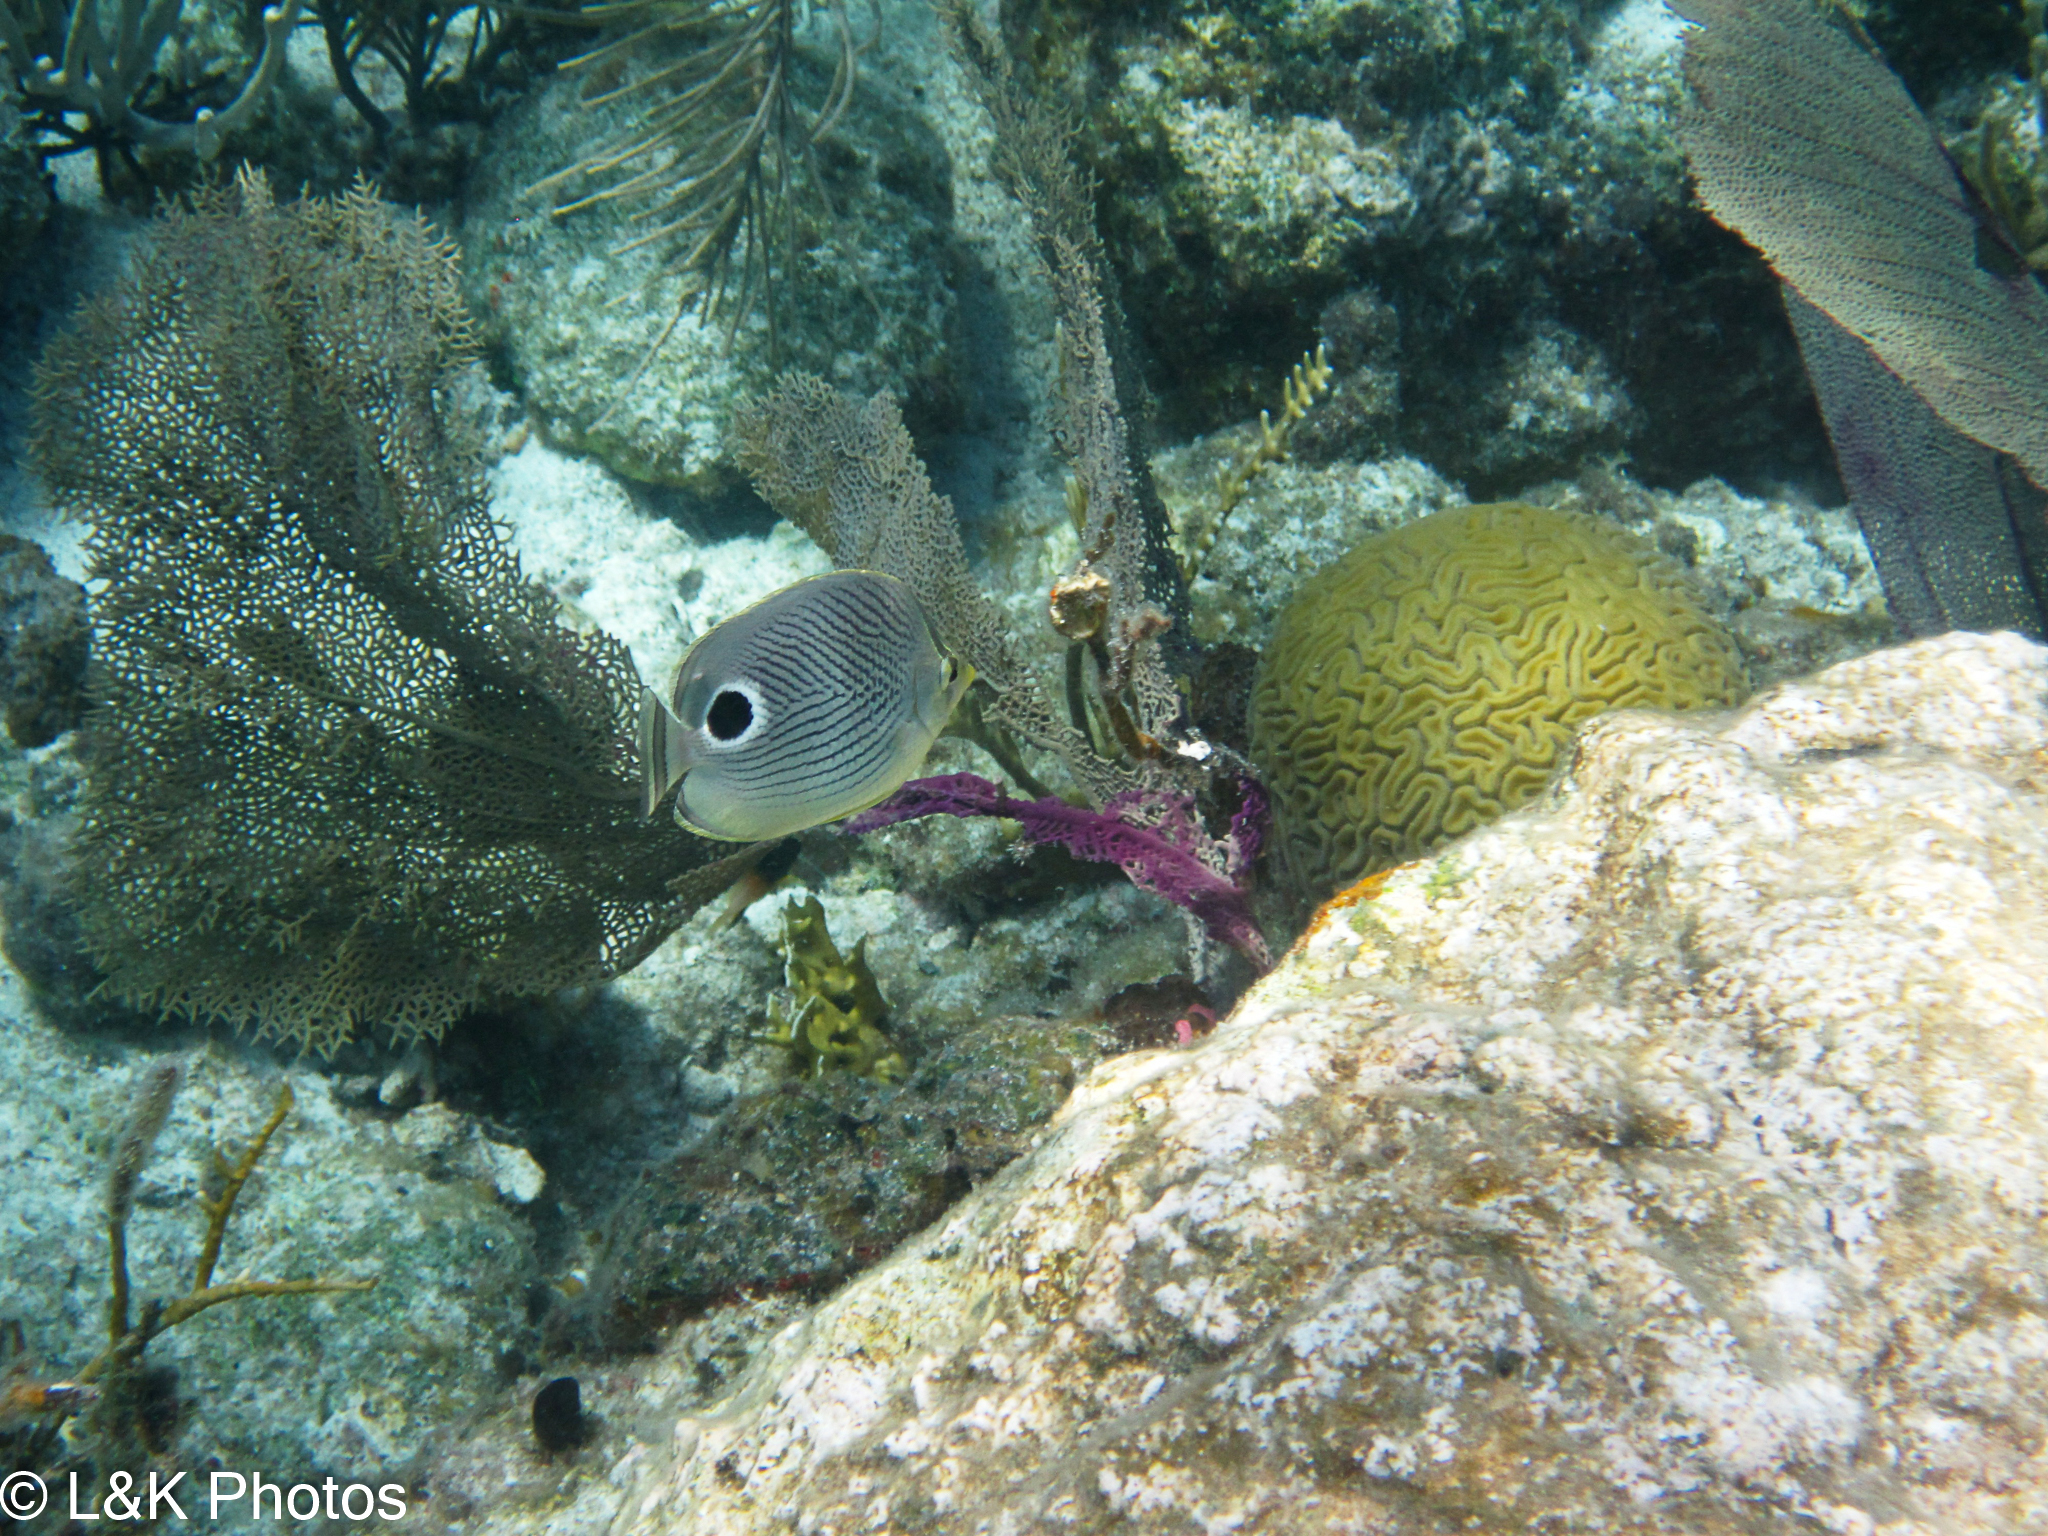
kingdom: Animalia
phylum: Chordata
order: Perciformes
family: Chaetodontidae
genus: Chaetodon
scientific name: Chaetodon capistratus
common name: Kete
